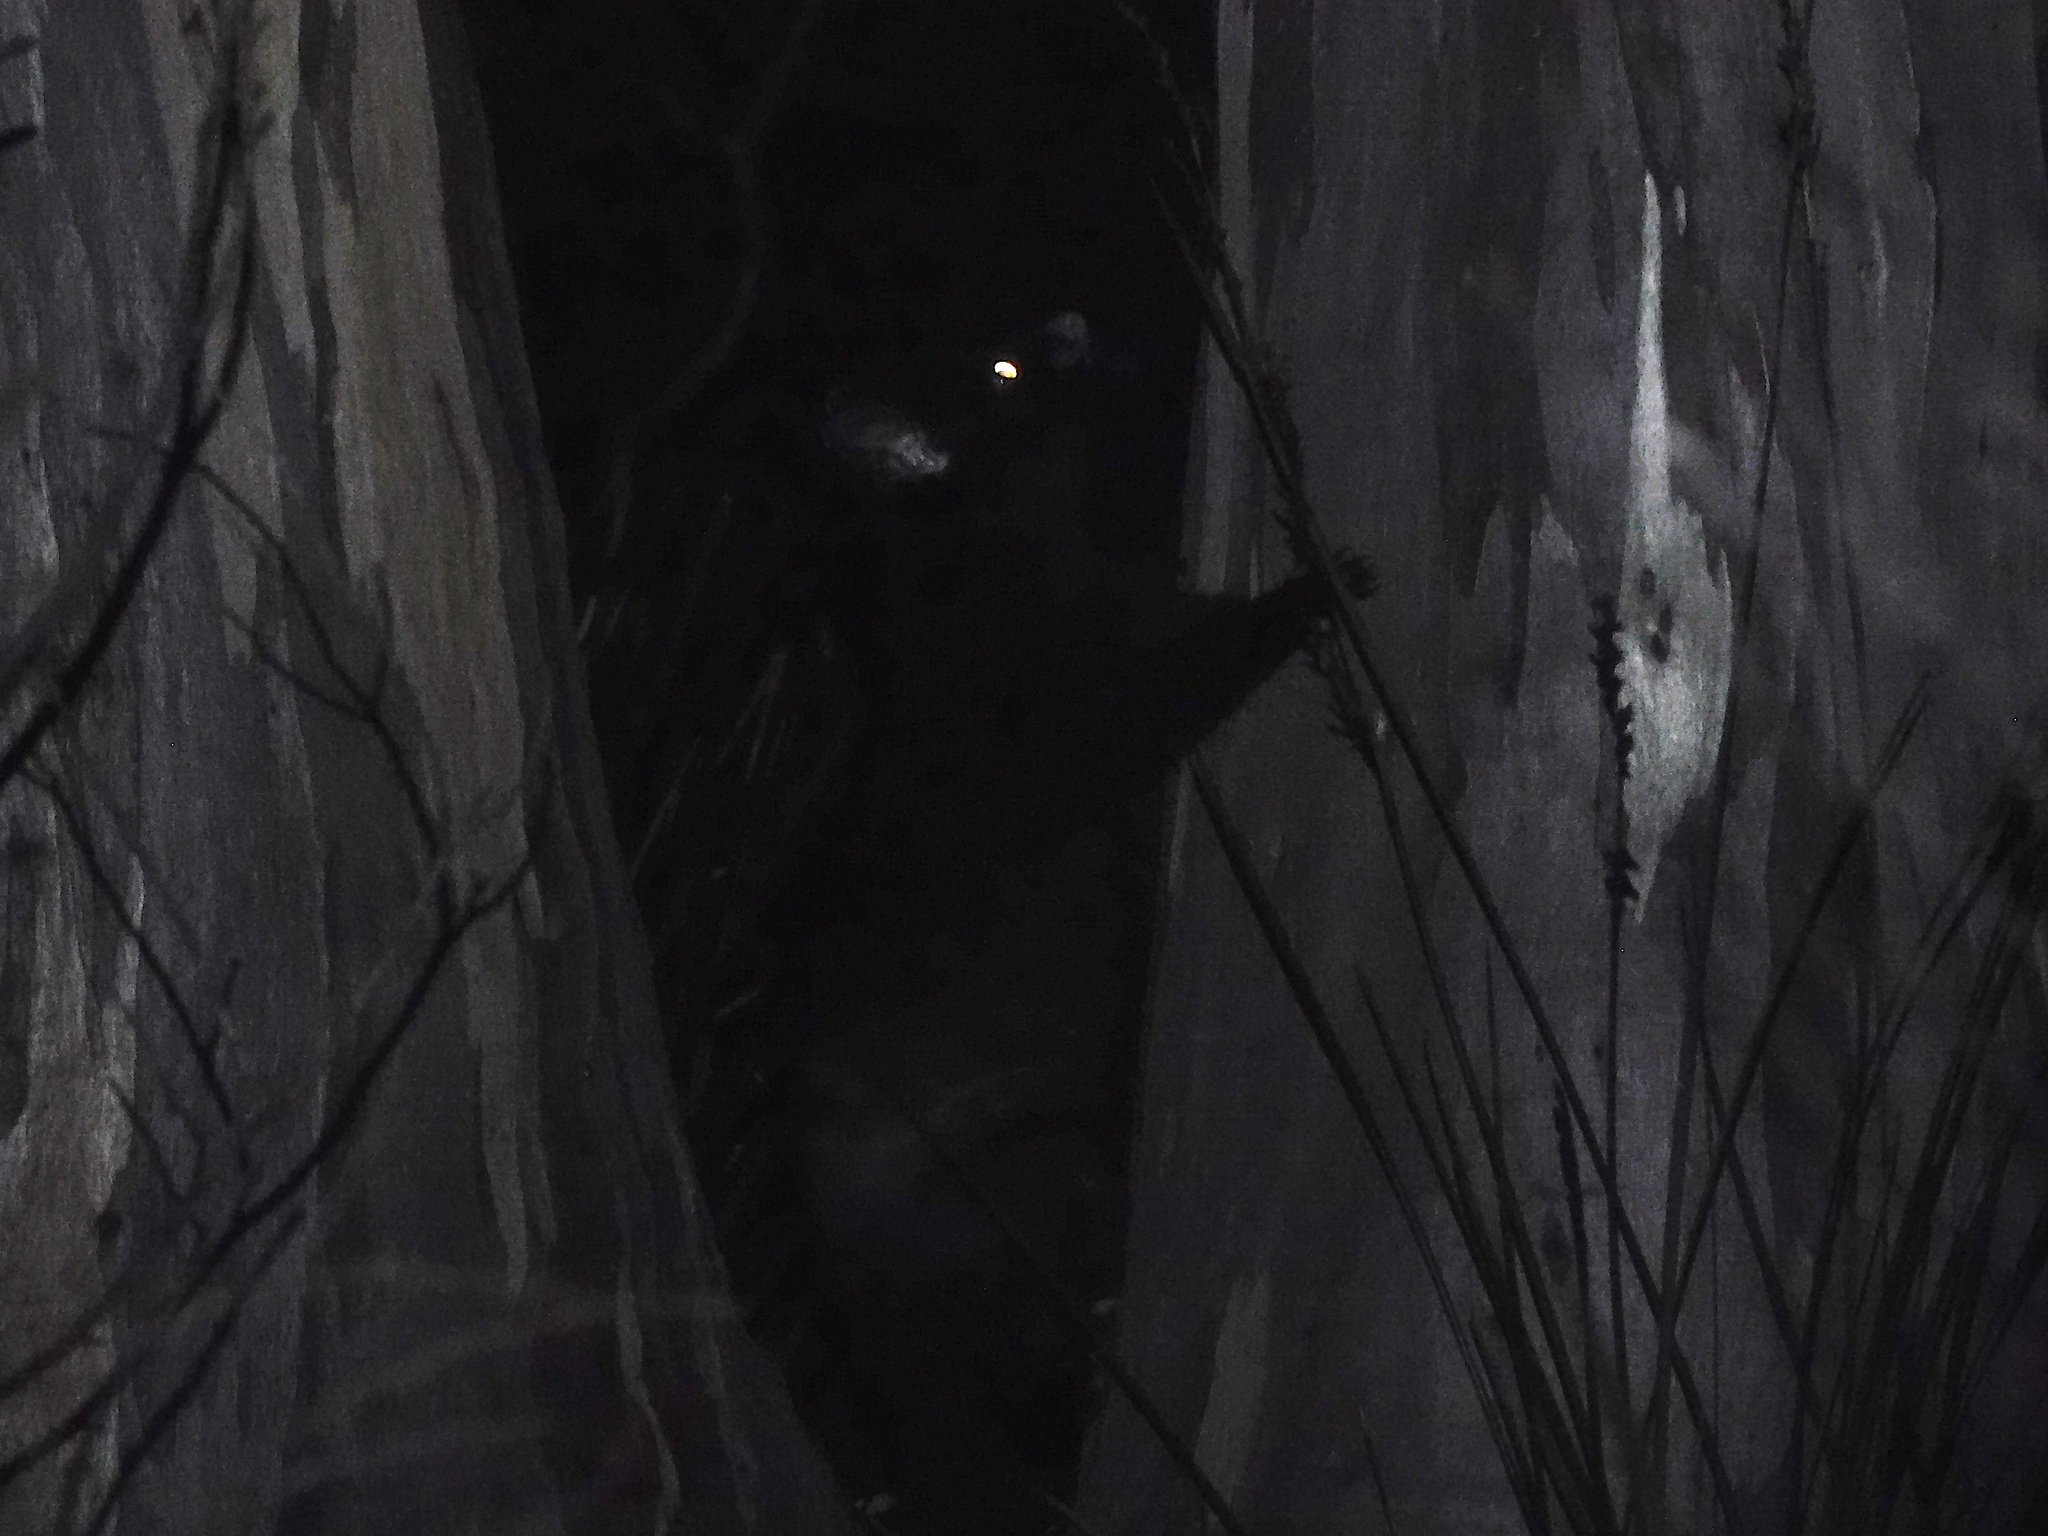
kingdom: Animalia
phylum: Chordata
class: Mammalia
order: Diprotodontia
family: Phalangeridae
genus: Trichosurus
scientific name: Trichosurus vulpecula
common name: Common brushtail
